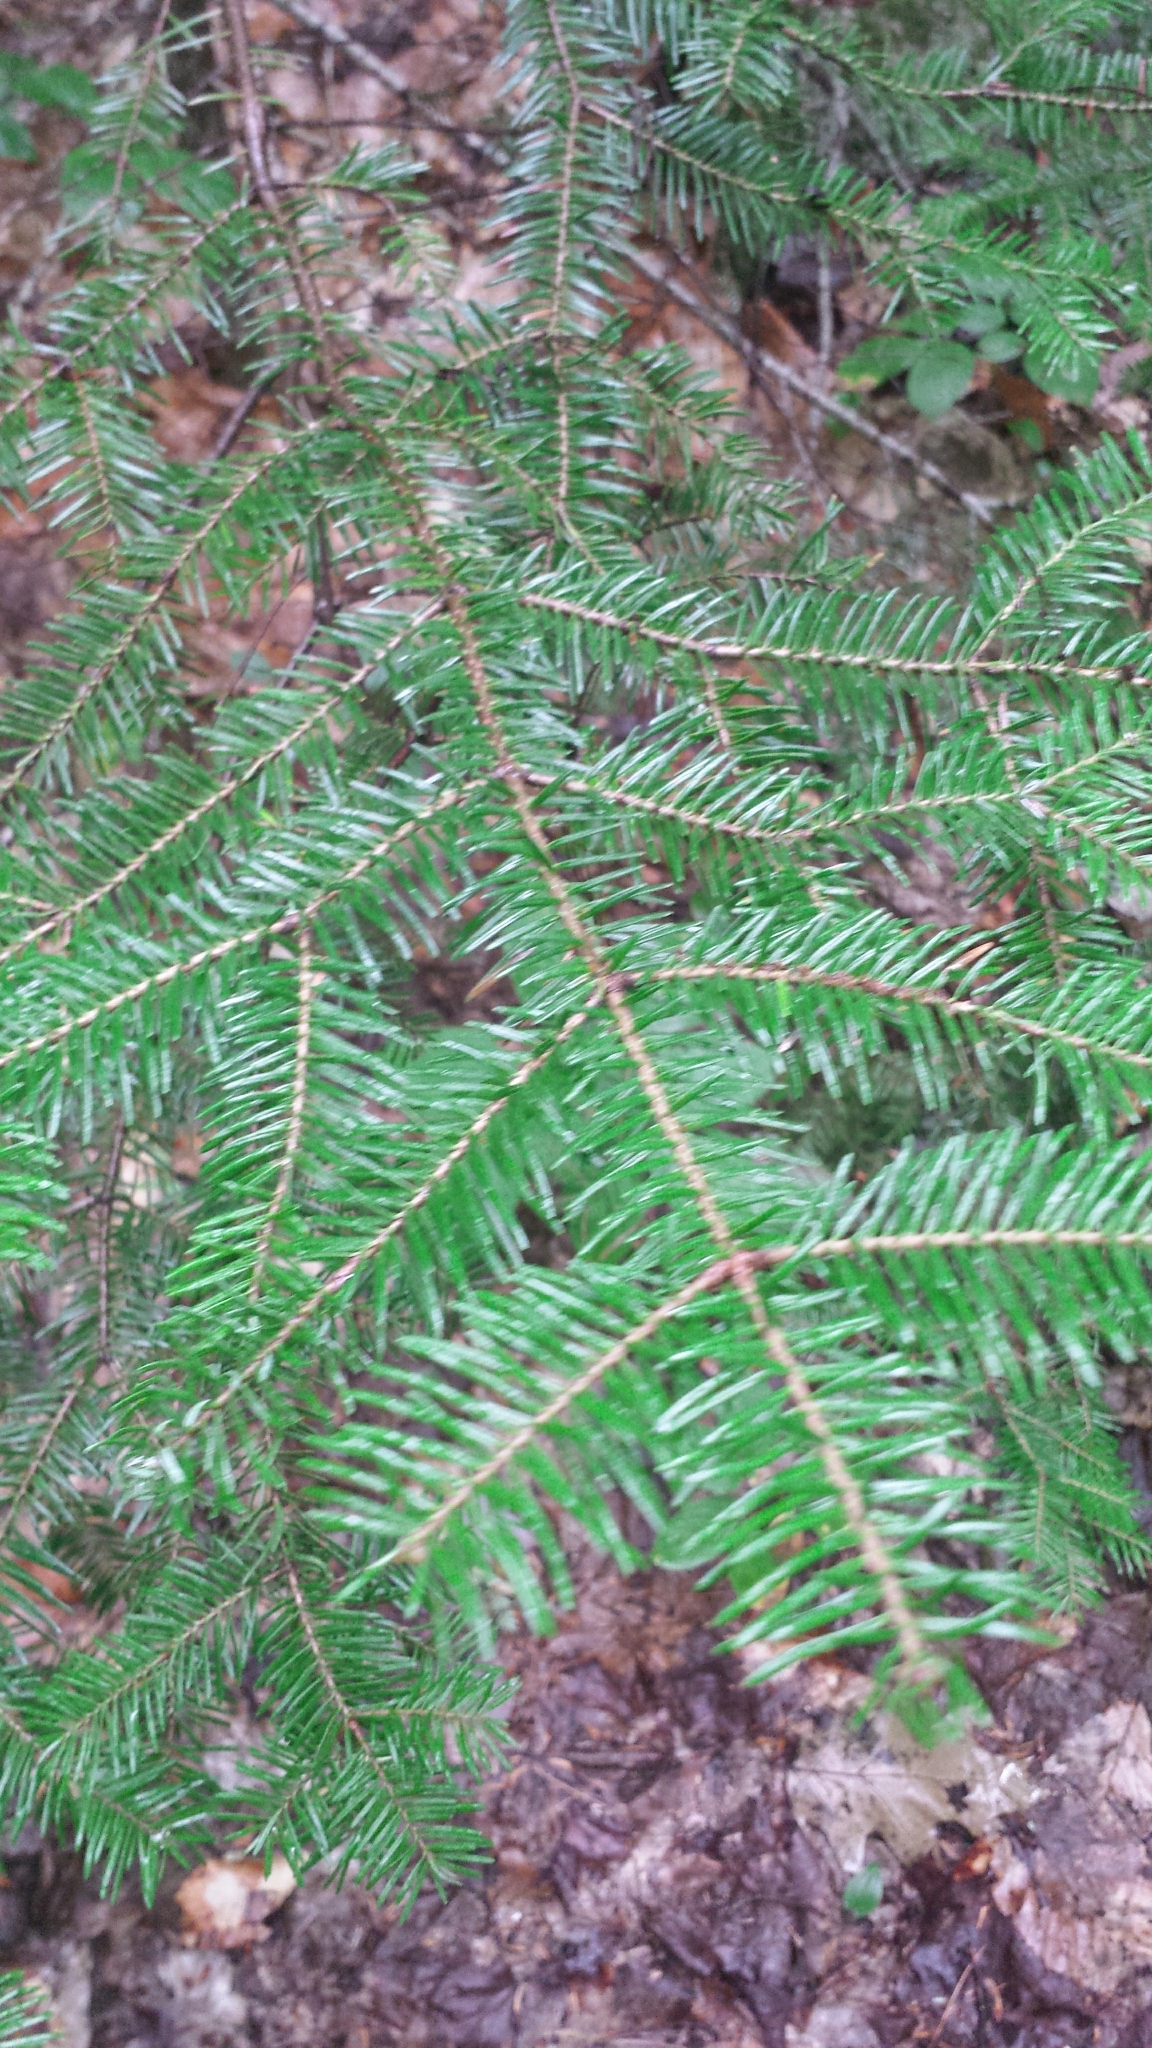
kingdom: Plantae
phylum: Tracheophyta
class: Pinopsida
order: Pinales
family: Pinaceae
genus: Abies
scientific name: Abies balsamea
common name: Balsam fir
